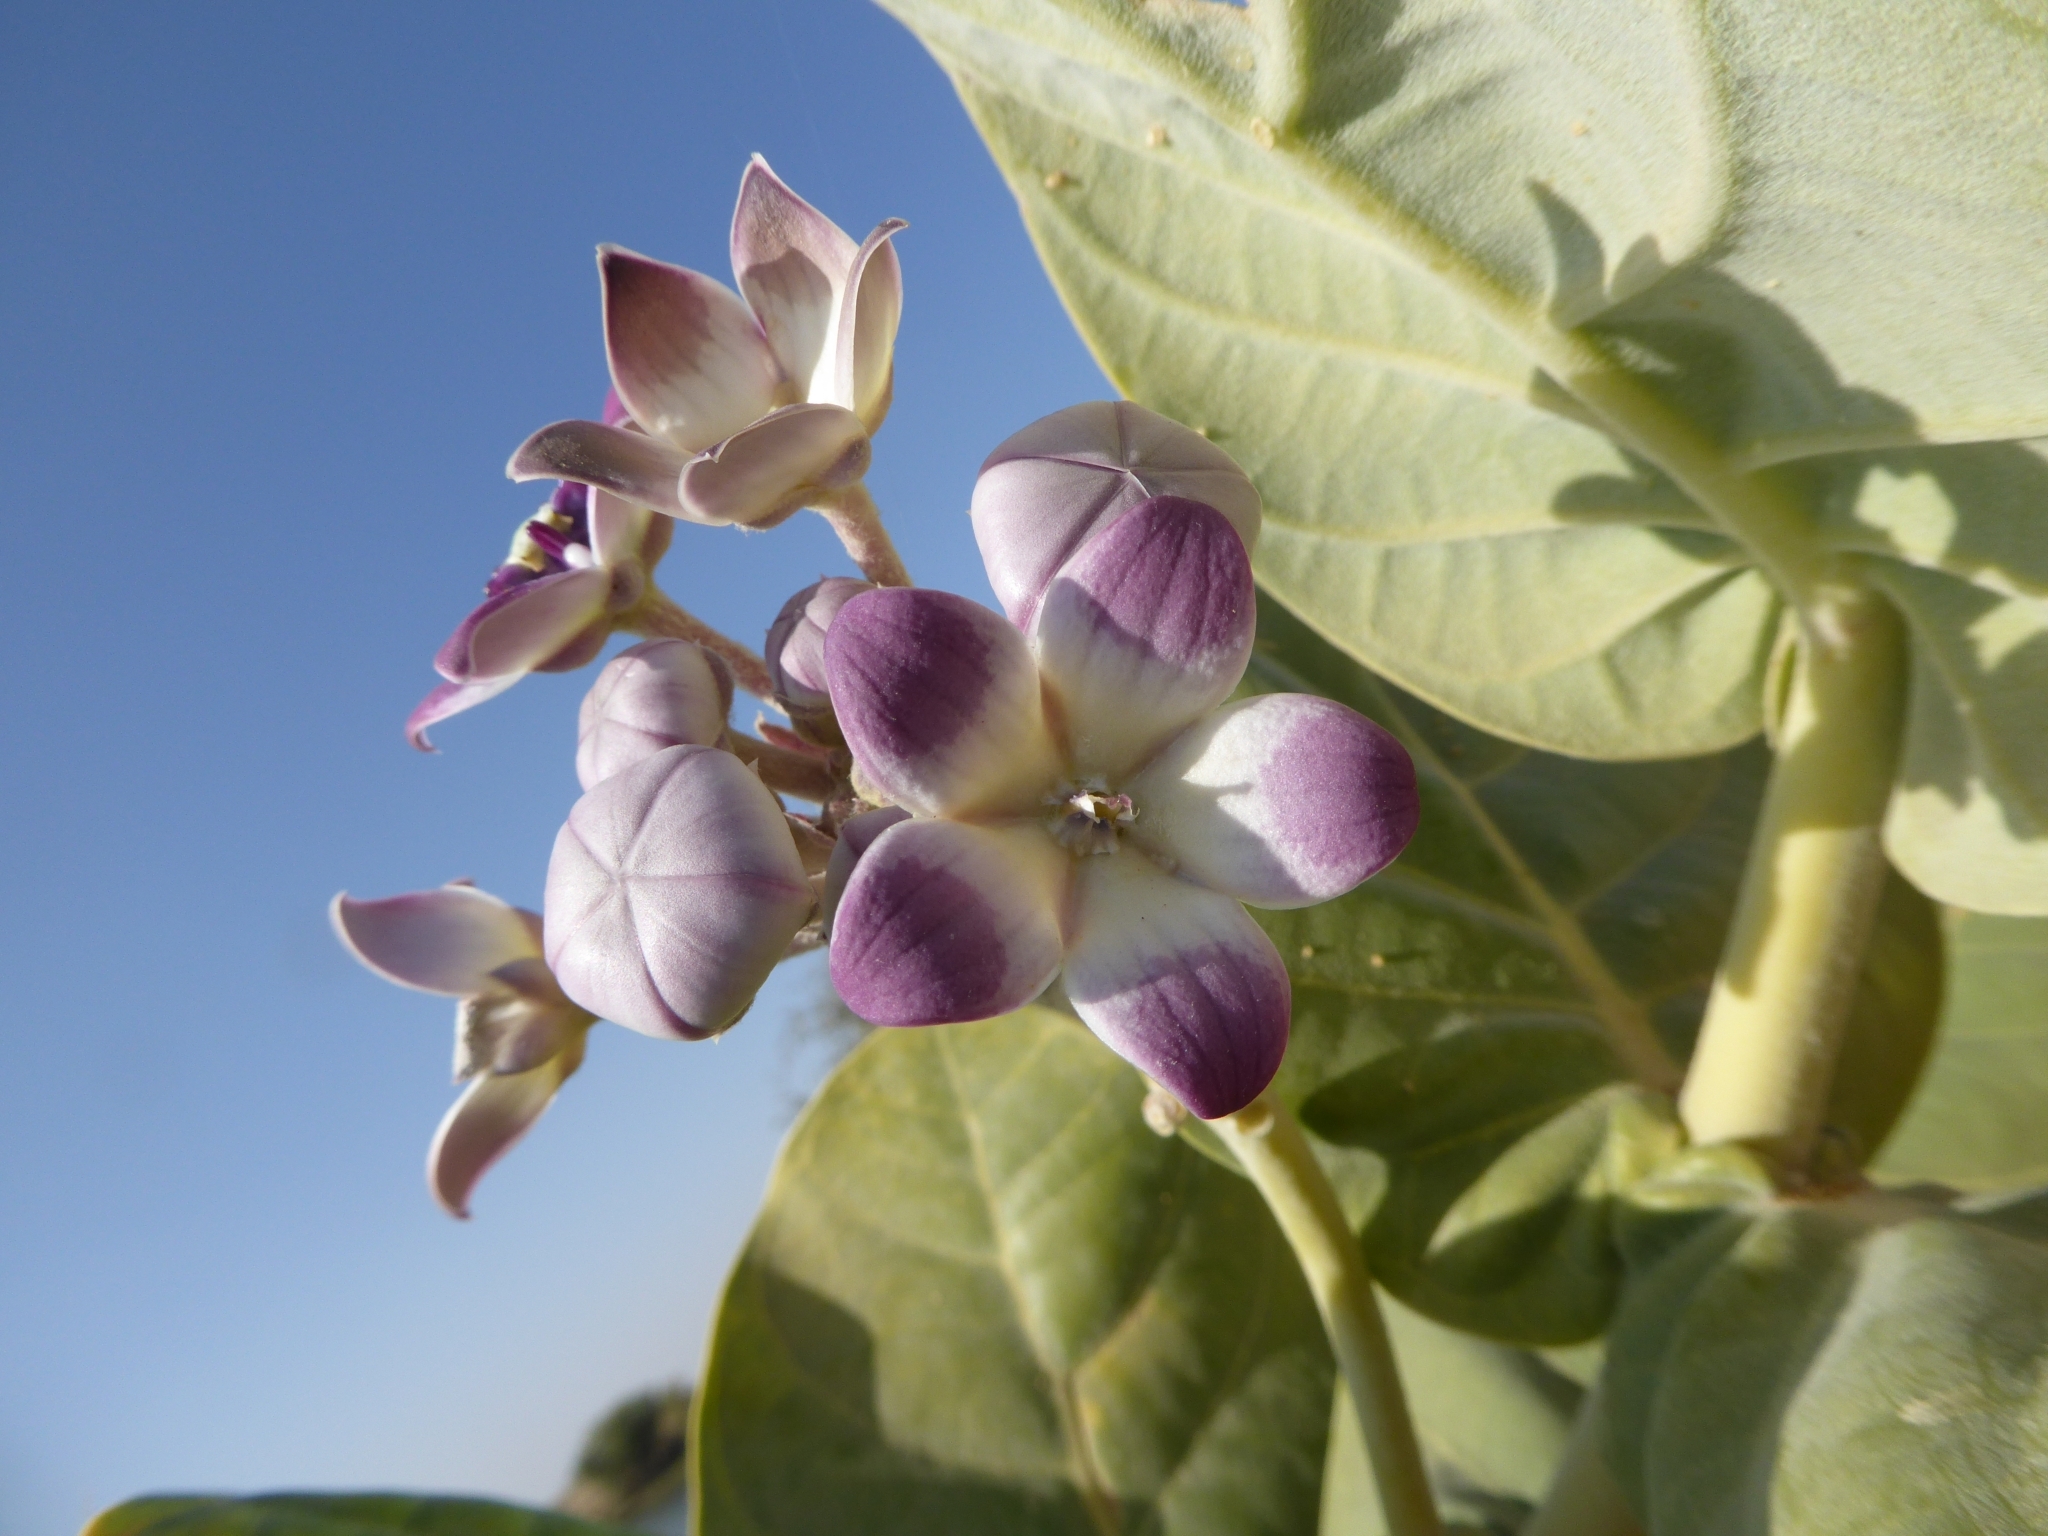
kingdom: Plantae
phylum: Tracheophyta
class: Magnoliopsida
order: Gentianales
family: Apocynaceae
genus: Calotropis
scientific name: Calotropis procera
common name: Roostertree
